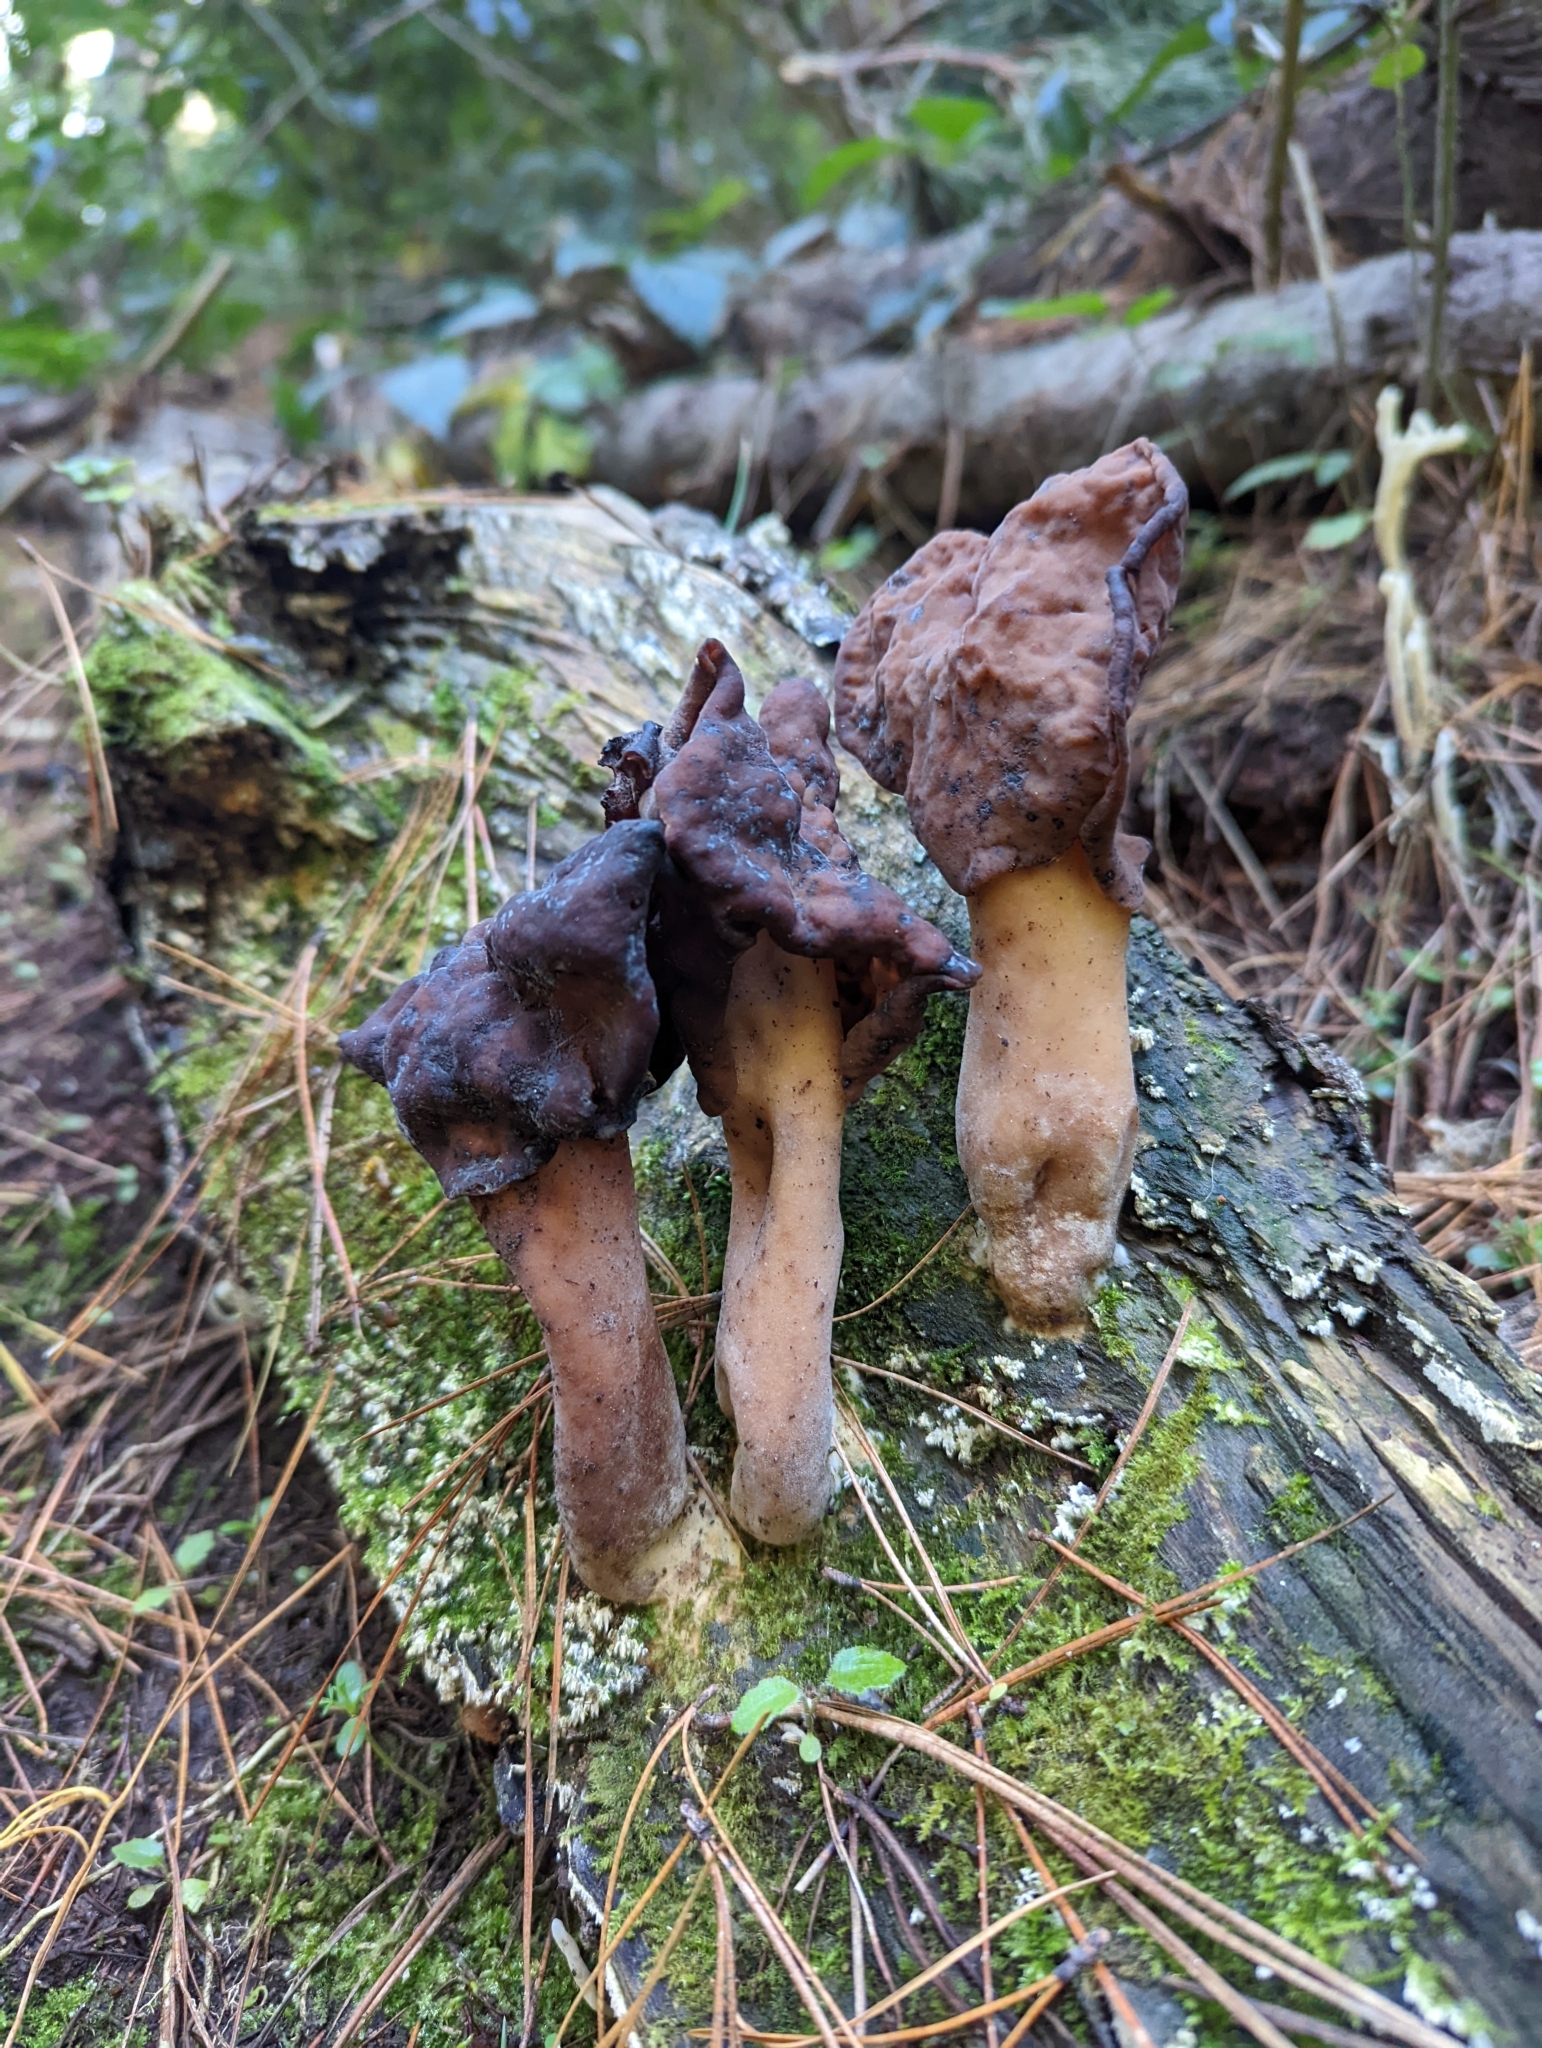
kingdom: Fungi
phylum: Ascomycota
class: Pezizomycetes
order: Pezizales
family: Discinaceae
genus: Gyromitra
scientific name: Gyromitra infula
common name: Pouched false morel
